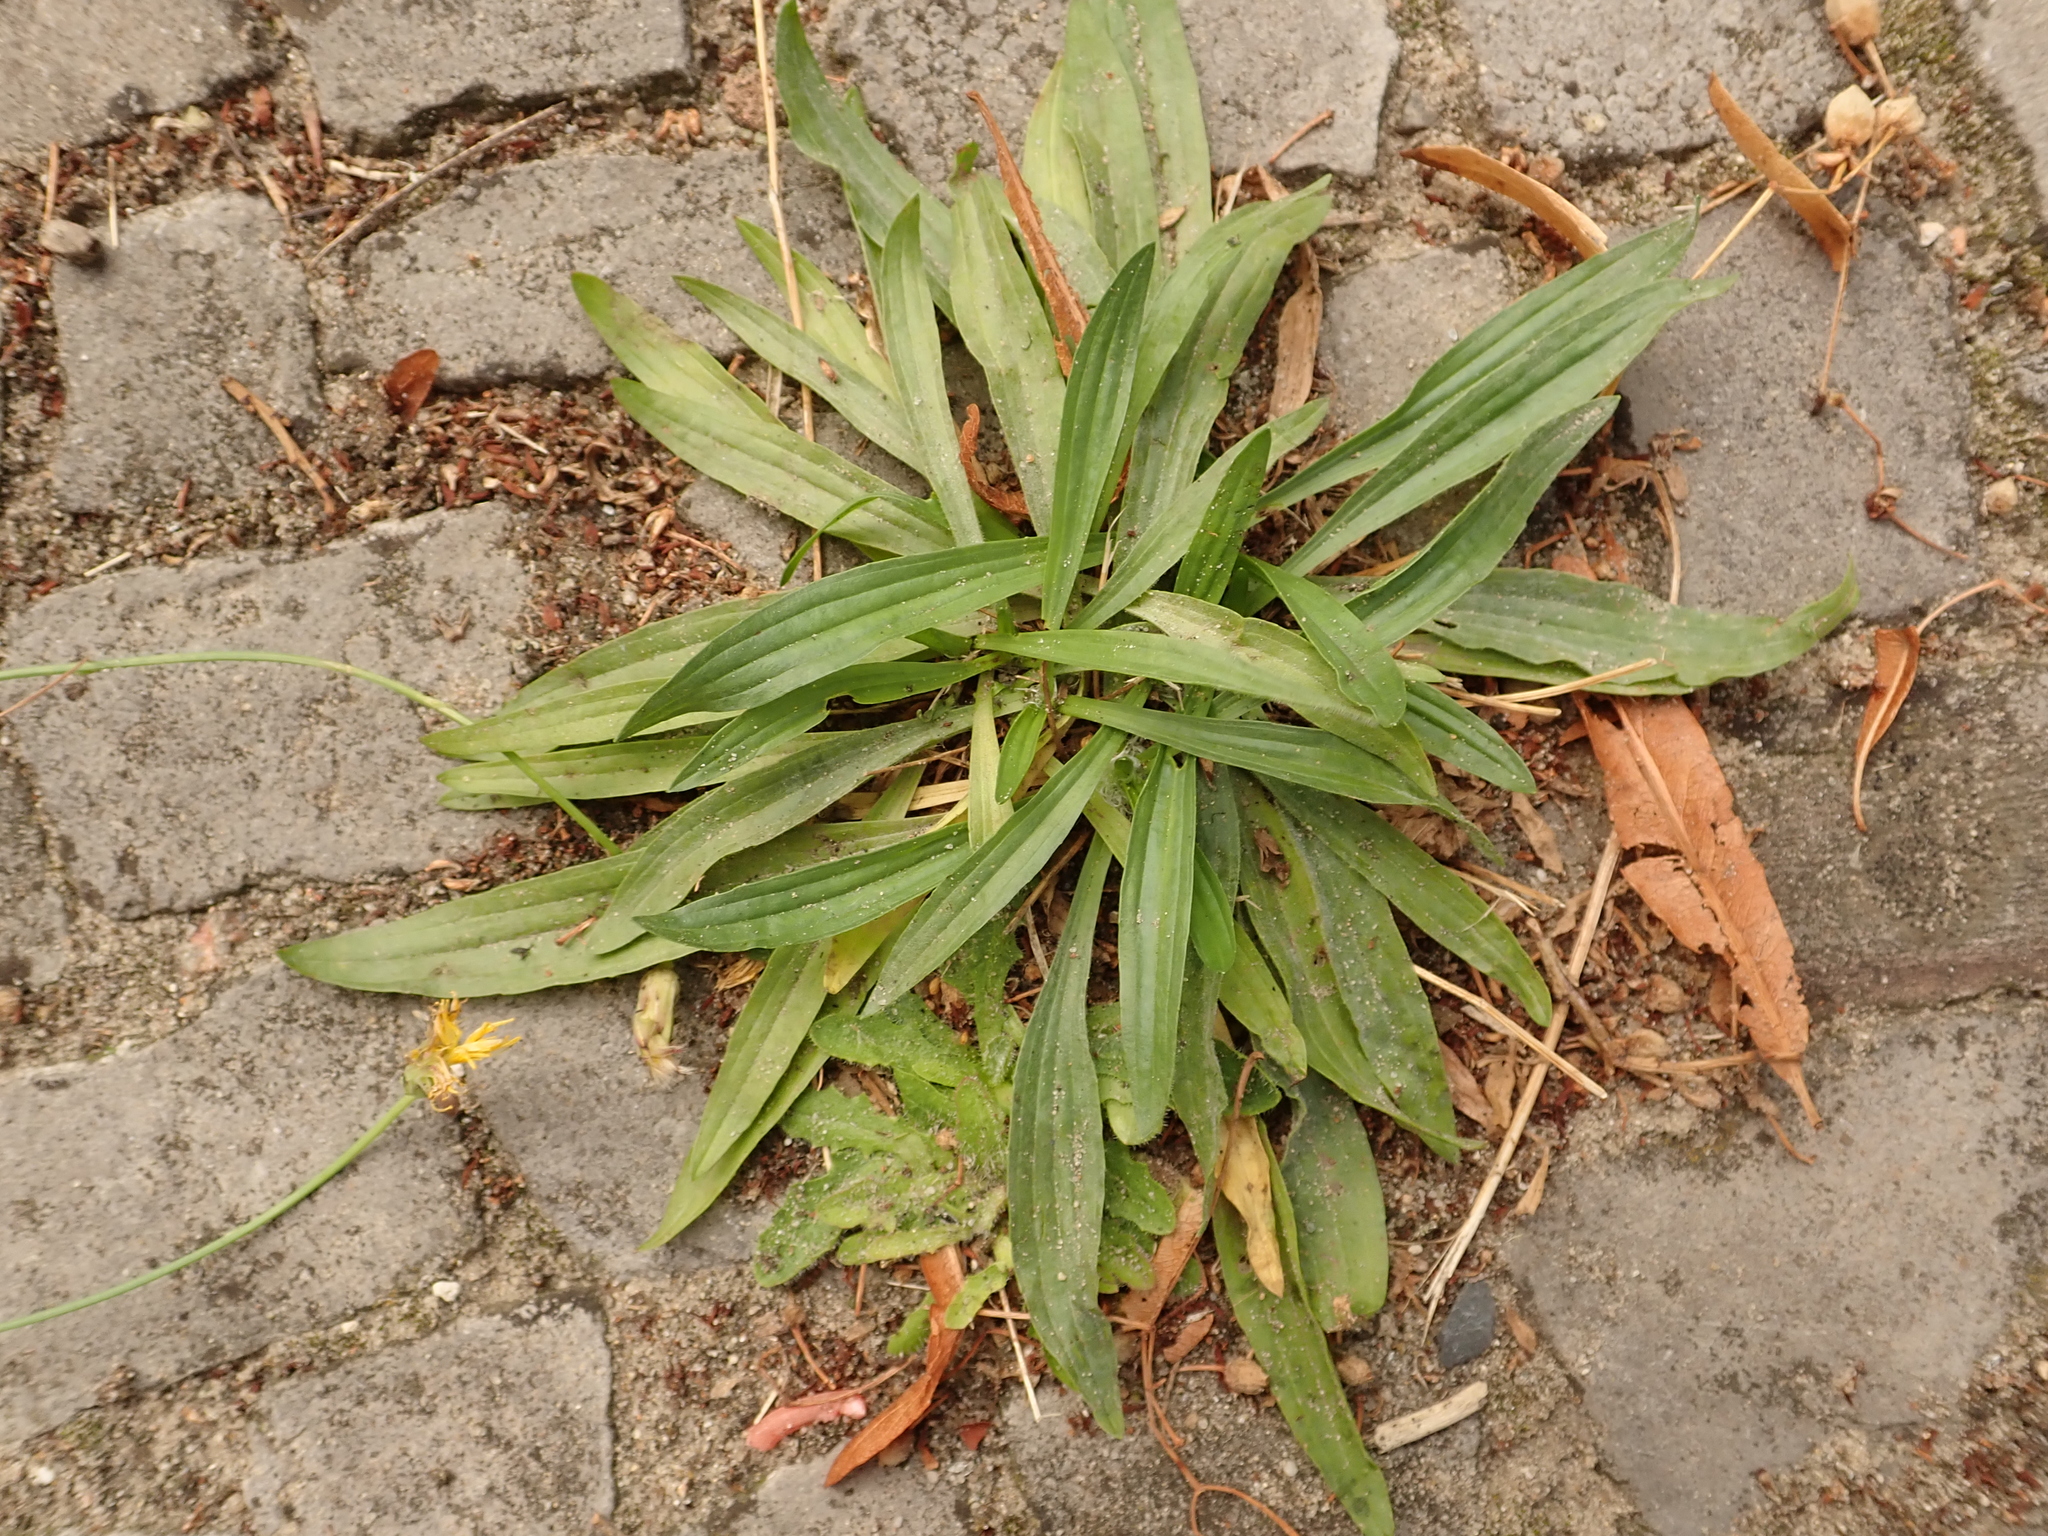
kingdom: Plantae
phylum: Tracheophyta
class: Magnoliopsida
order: Lamiales
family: Plantaginaceae
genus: Plantago
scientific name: Plantago lanceolata
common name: Ribwort plantain
